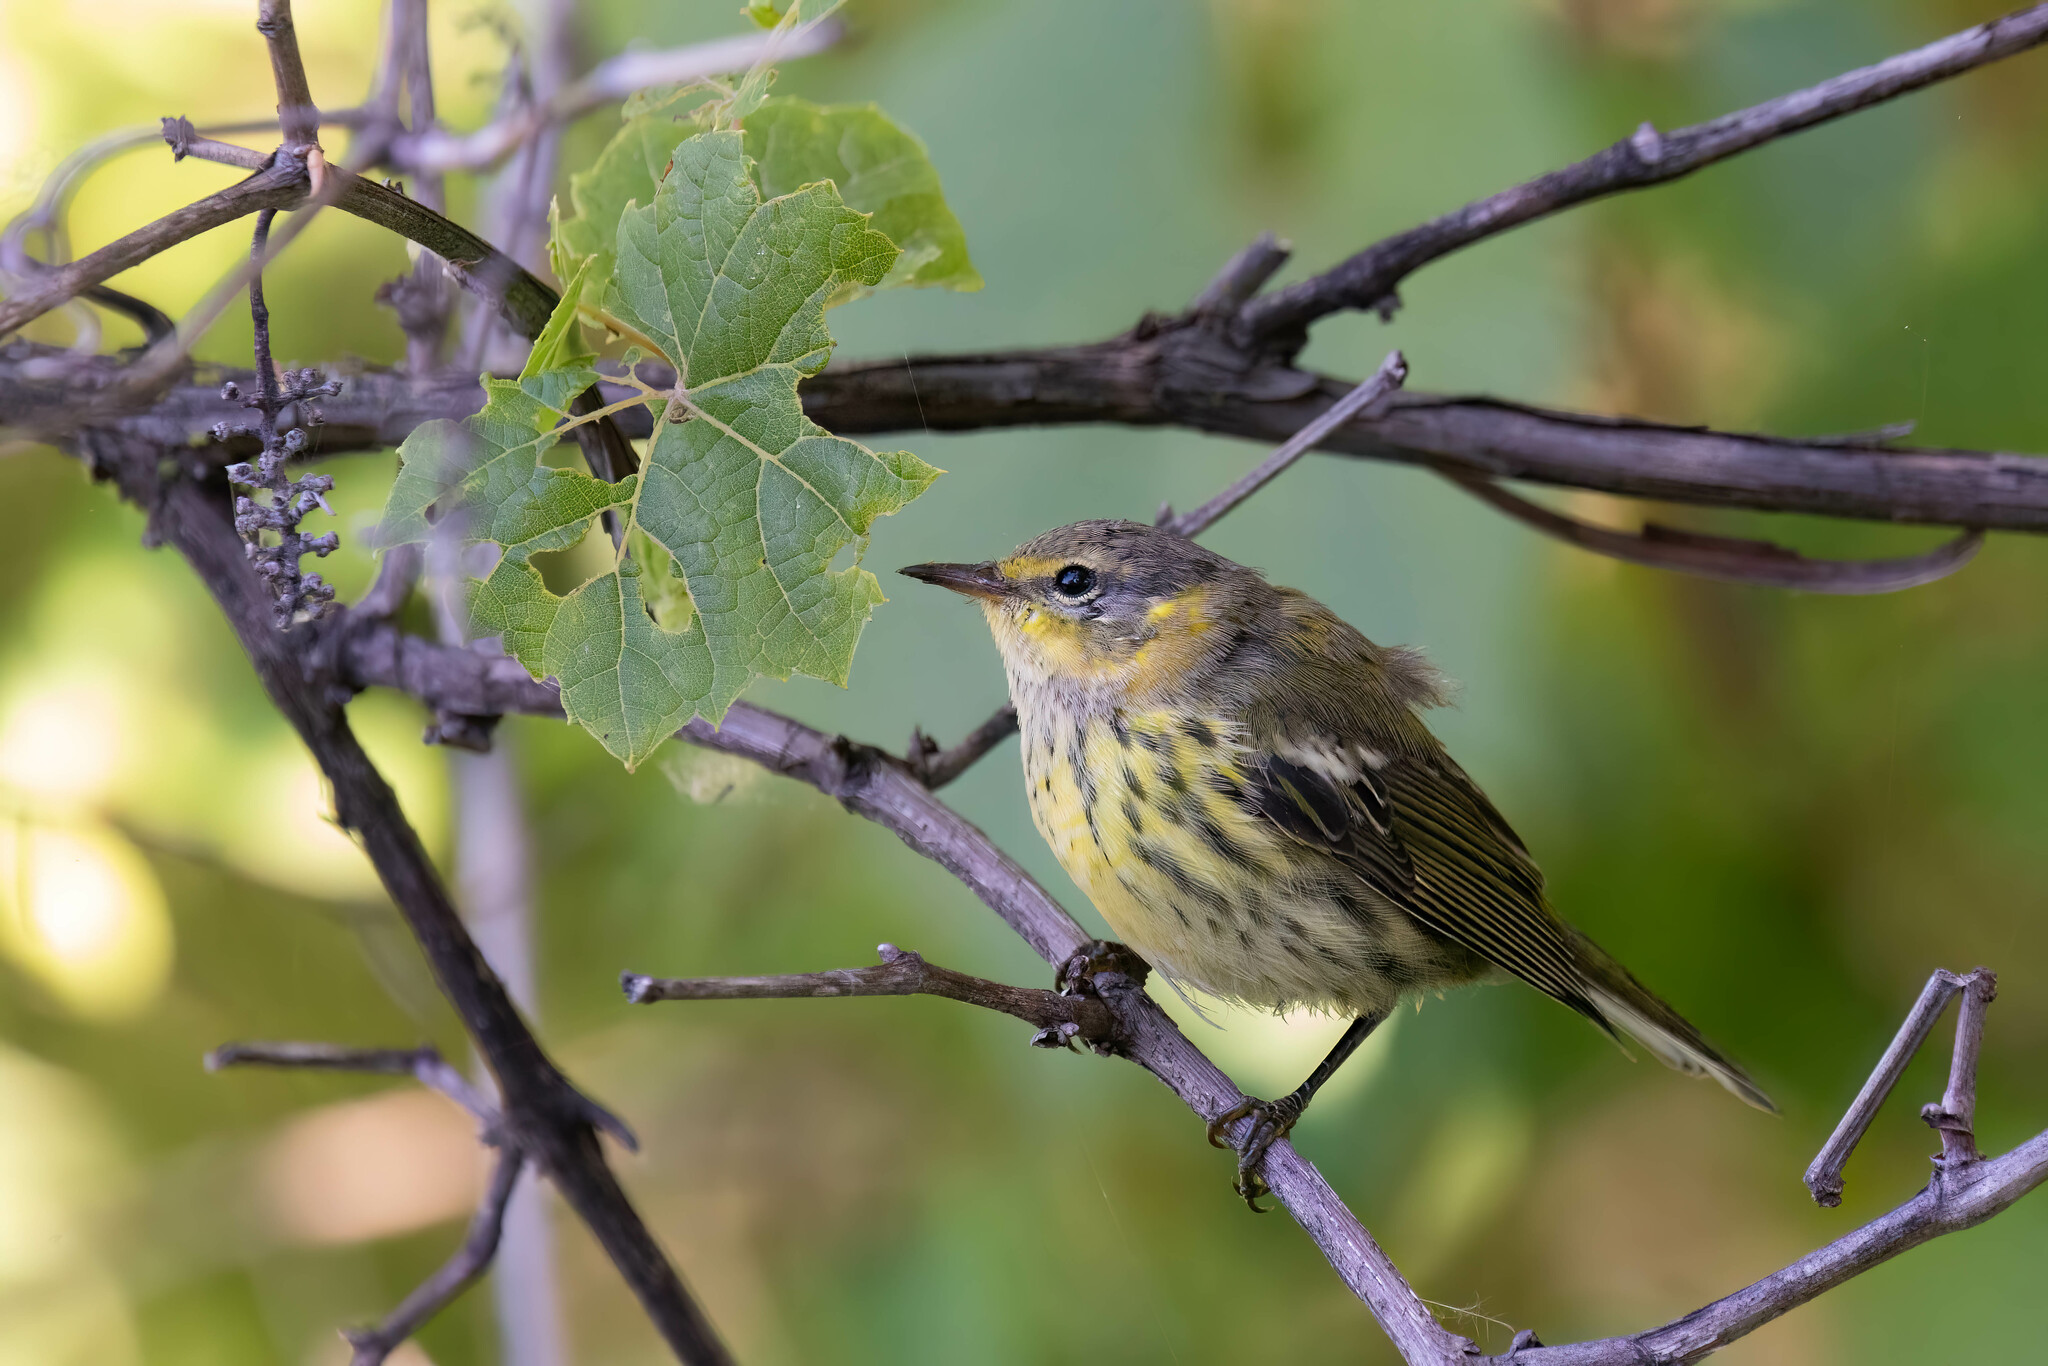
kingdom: Animalia
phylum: Chordata
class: Aves
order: Passeriformes
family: Parulidae
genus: Setophaga
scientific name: Setophaga tigrina
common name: Cape may warbler
